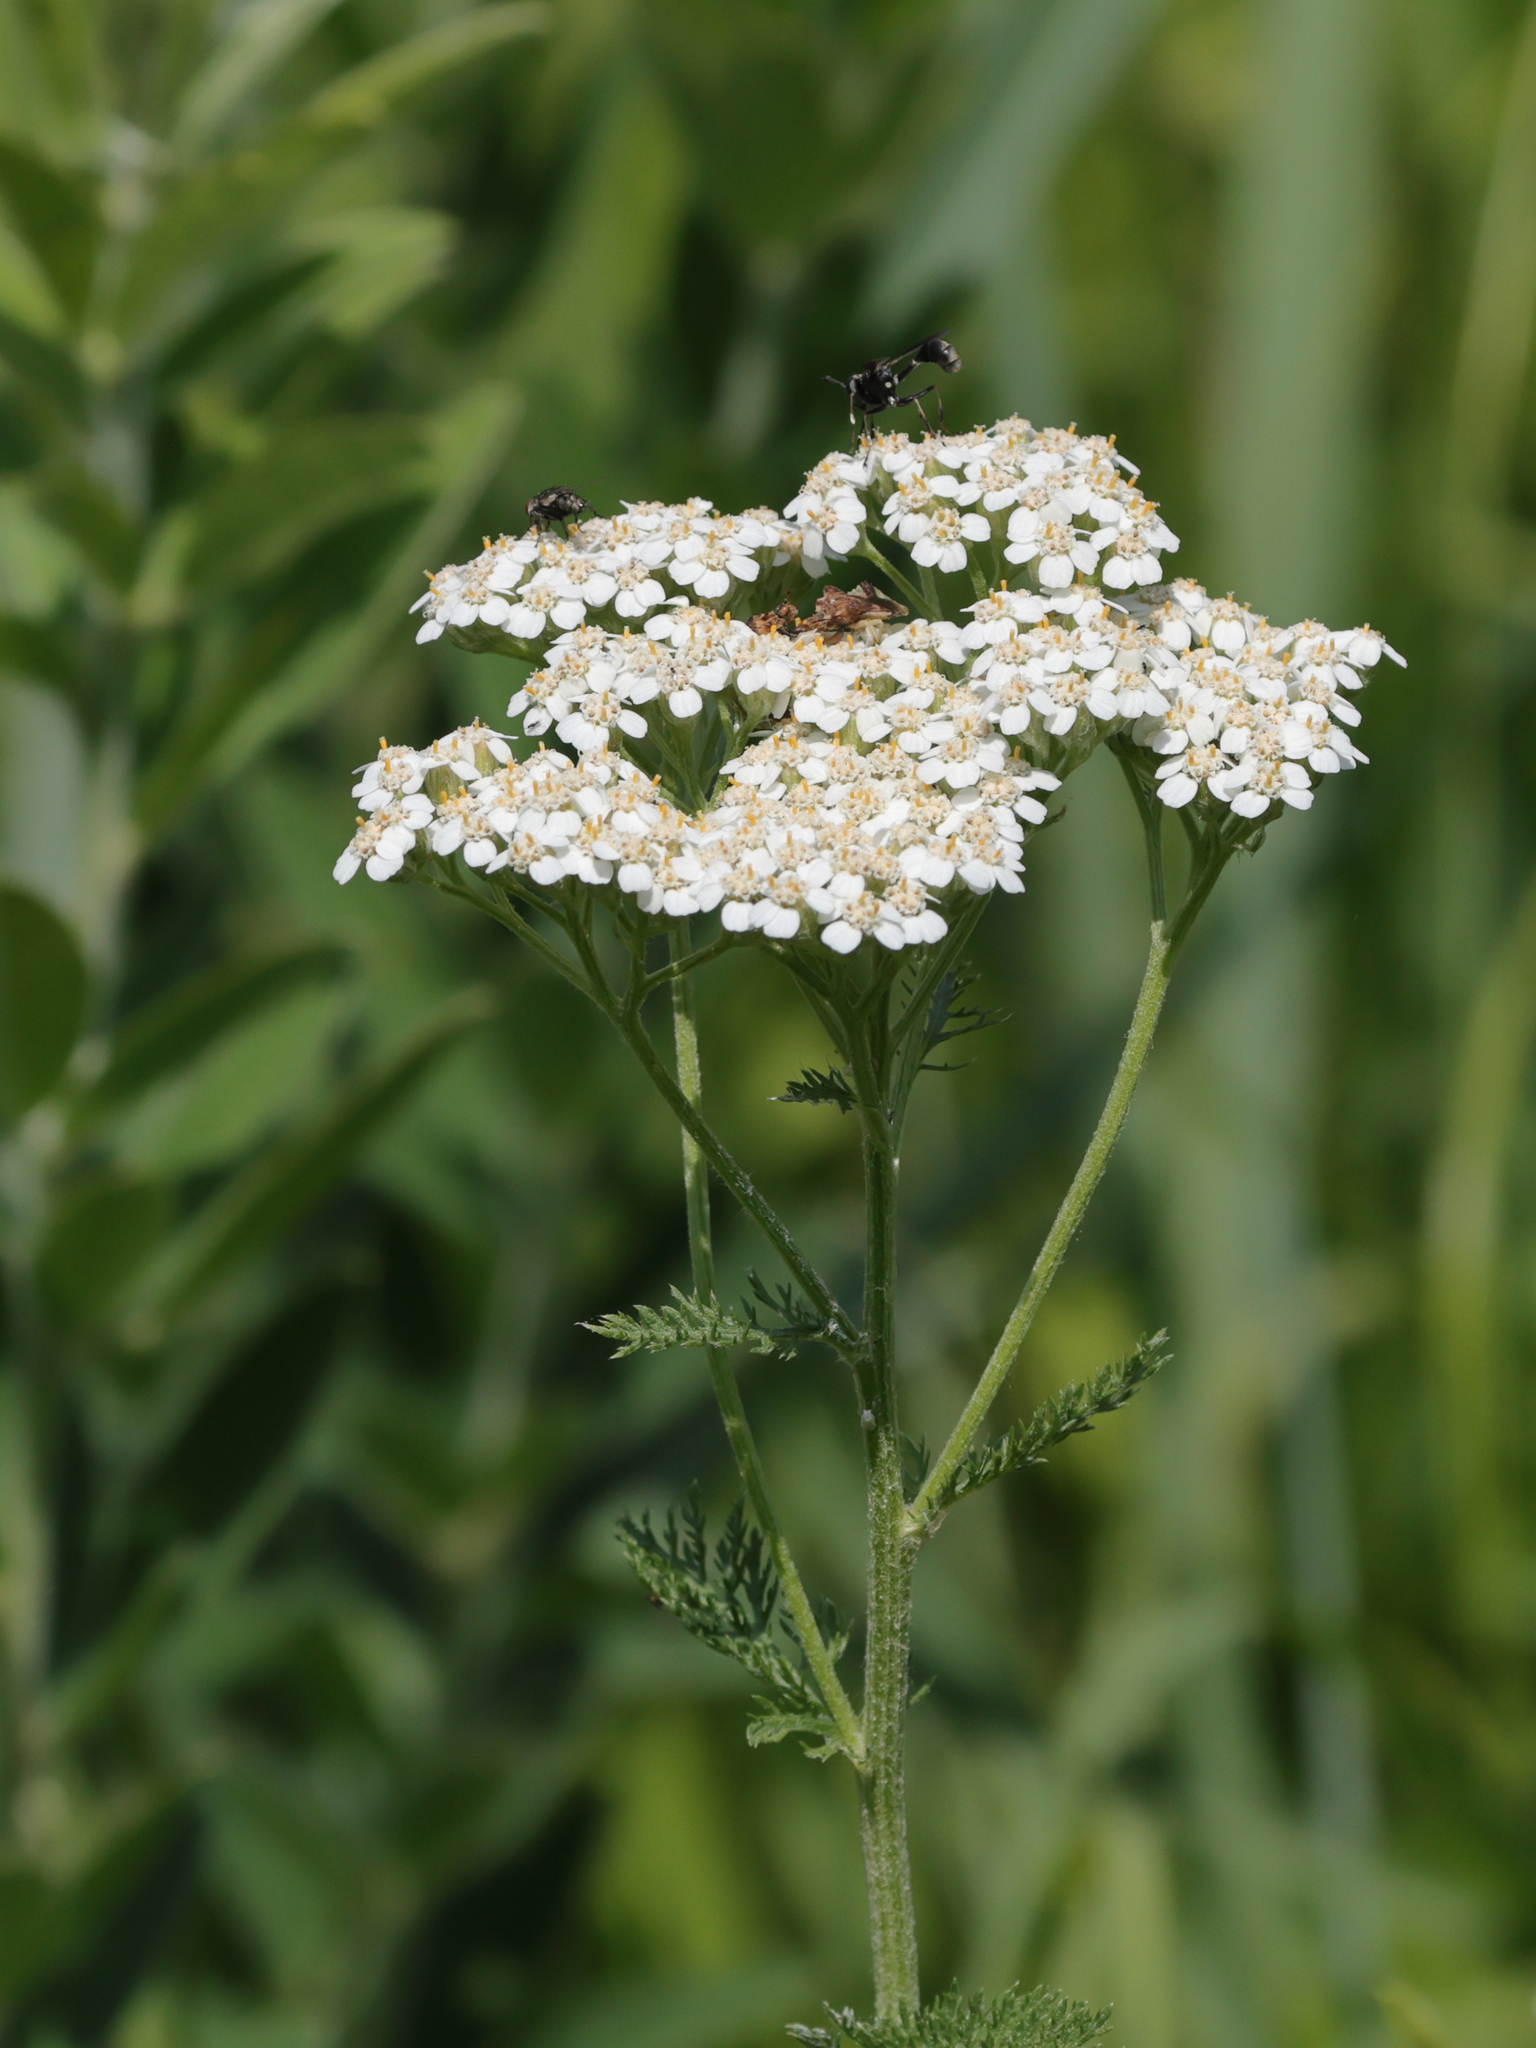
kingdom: Plantae
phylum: Tracheophyta
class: Magnoliopsida
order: Asterales
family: Asteraceae
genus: Achillea
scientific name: Achillea millefolium
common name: Yarrow
